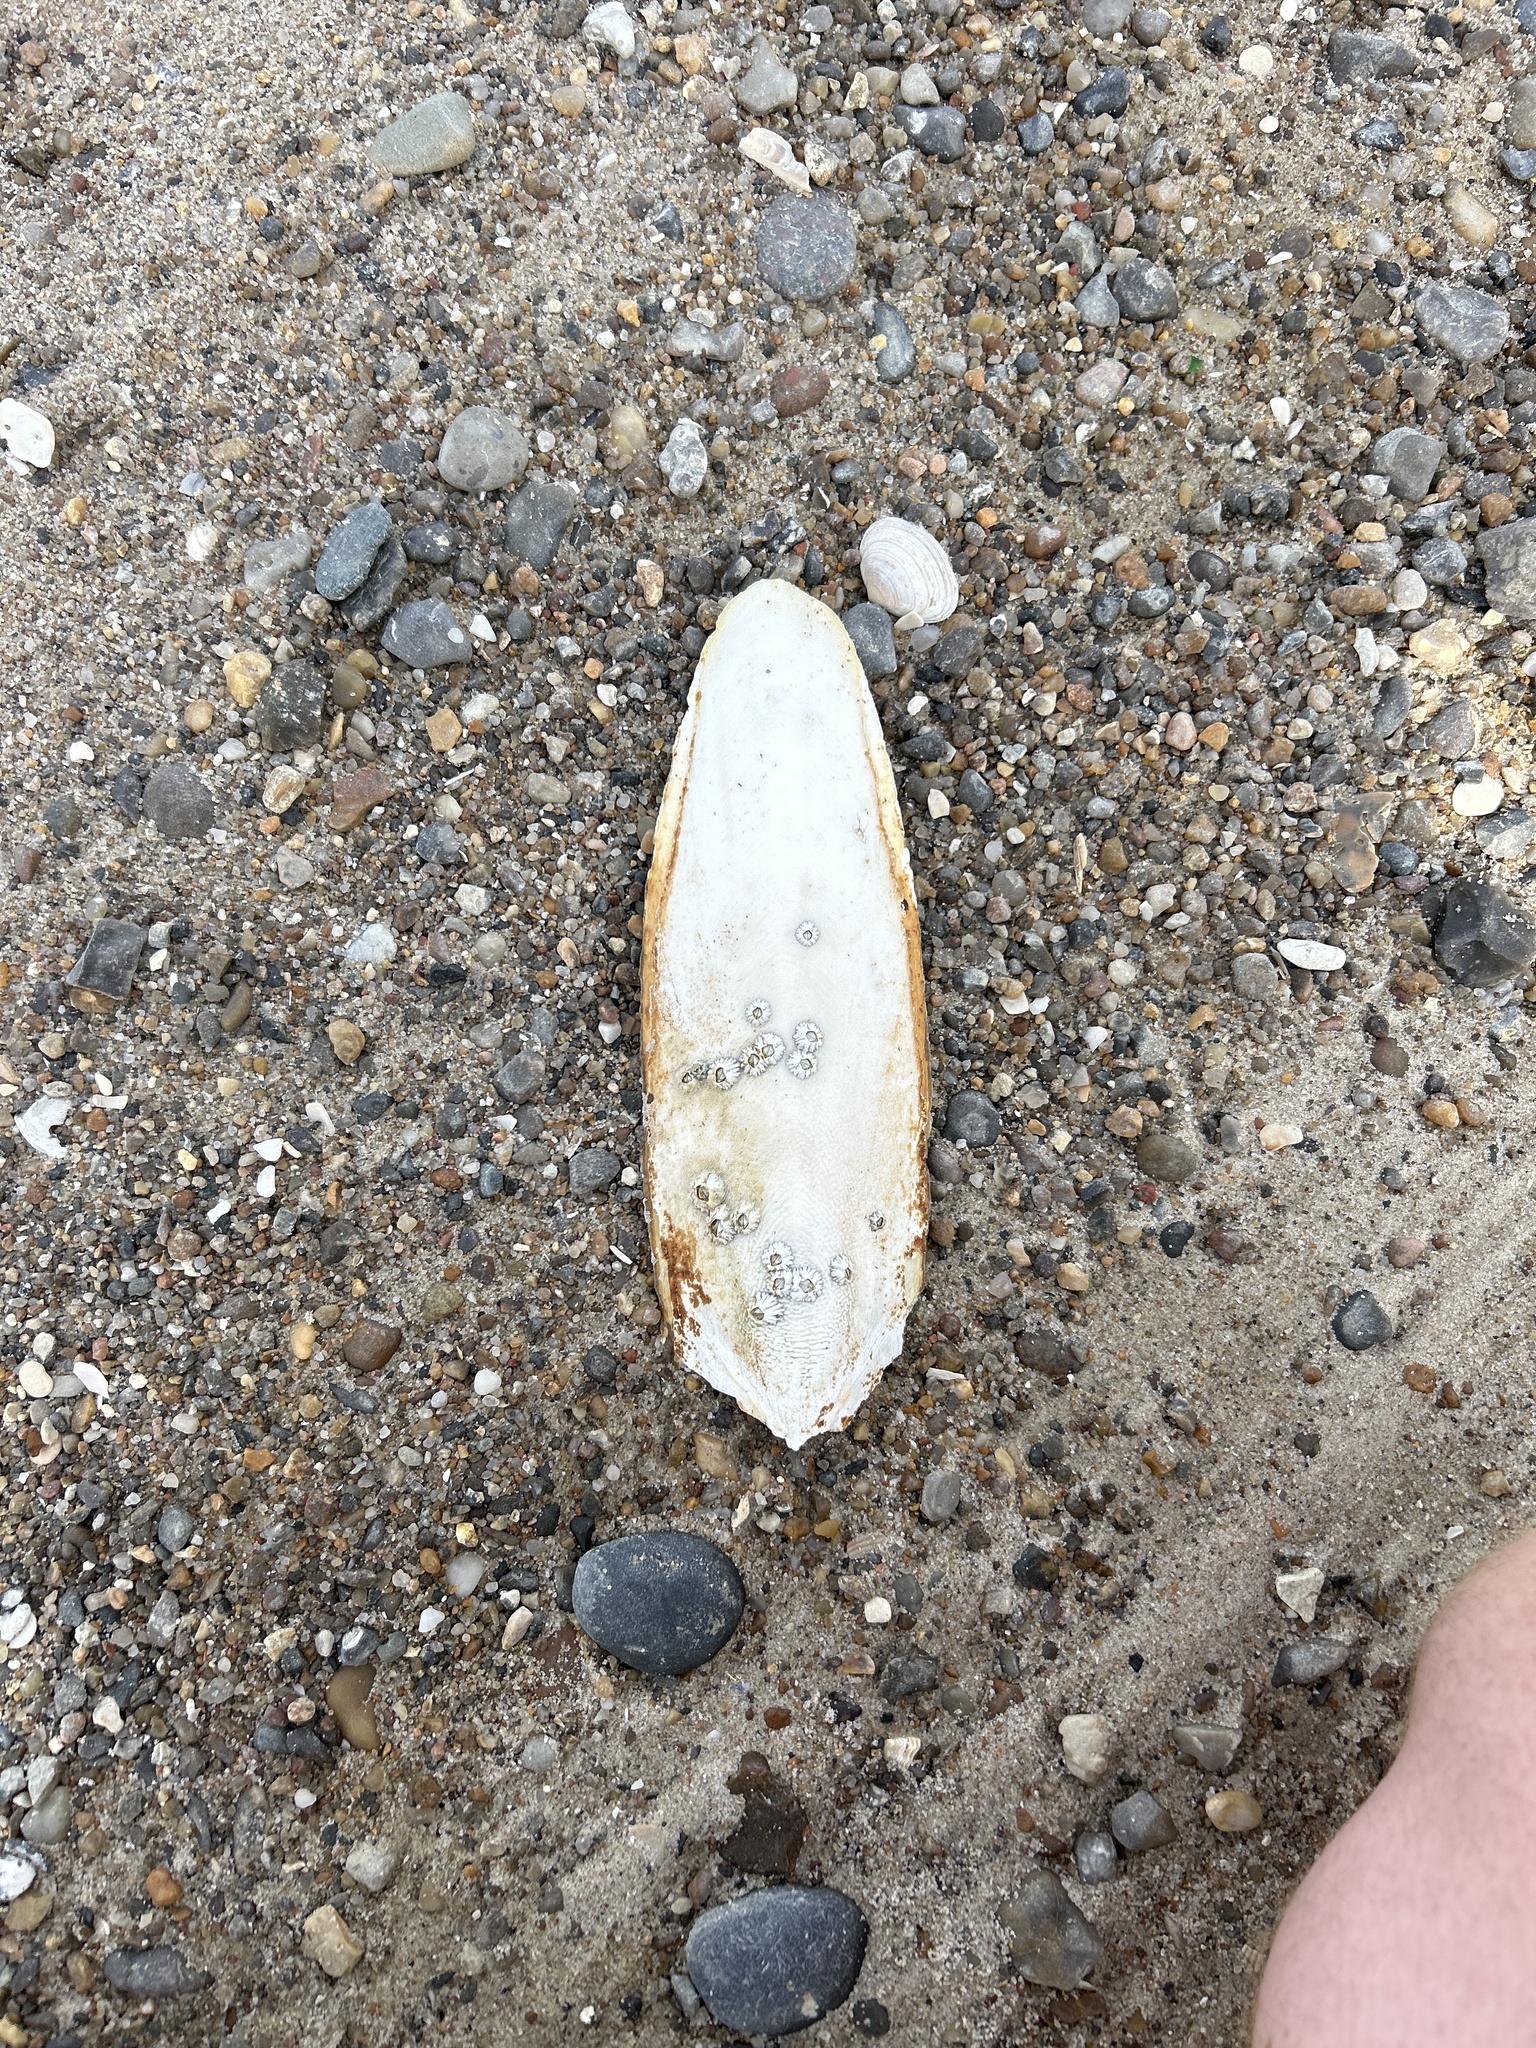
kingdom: Animalia
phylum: Mollusca
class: Cephalopoda
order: Sepiida
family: Sepiidae
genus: Sepia
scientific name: Sepia officinalis
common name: Common cuttlefish
